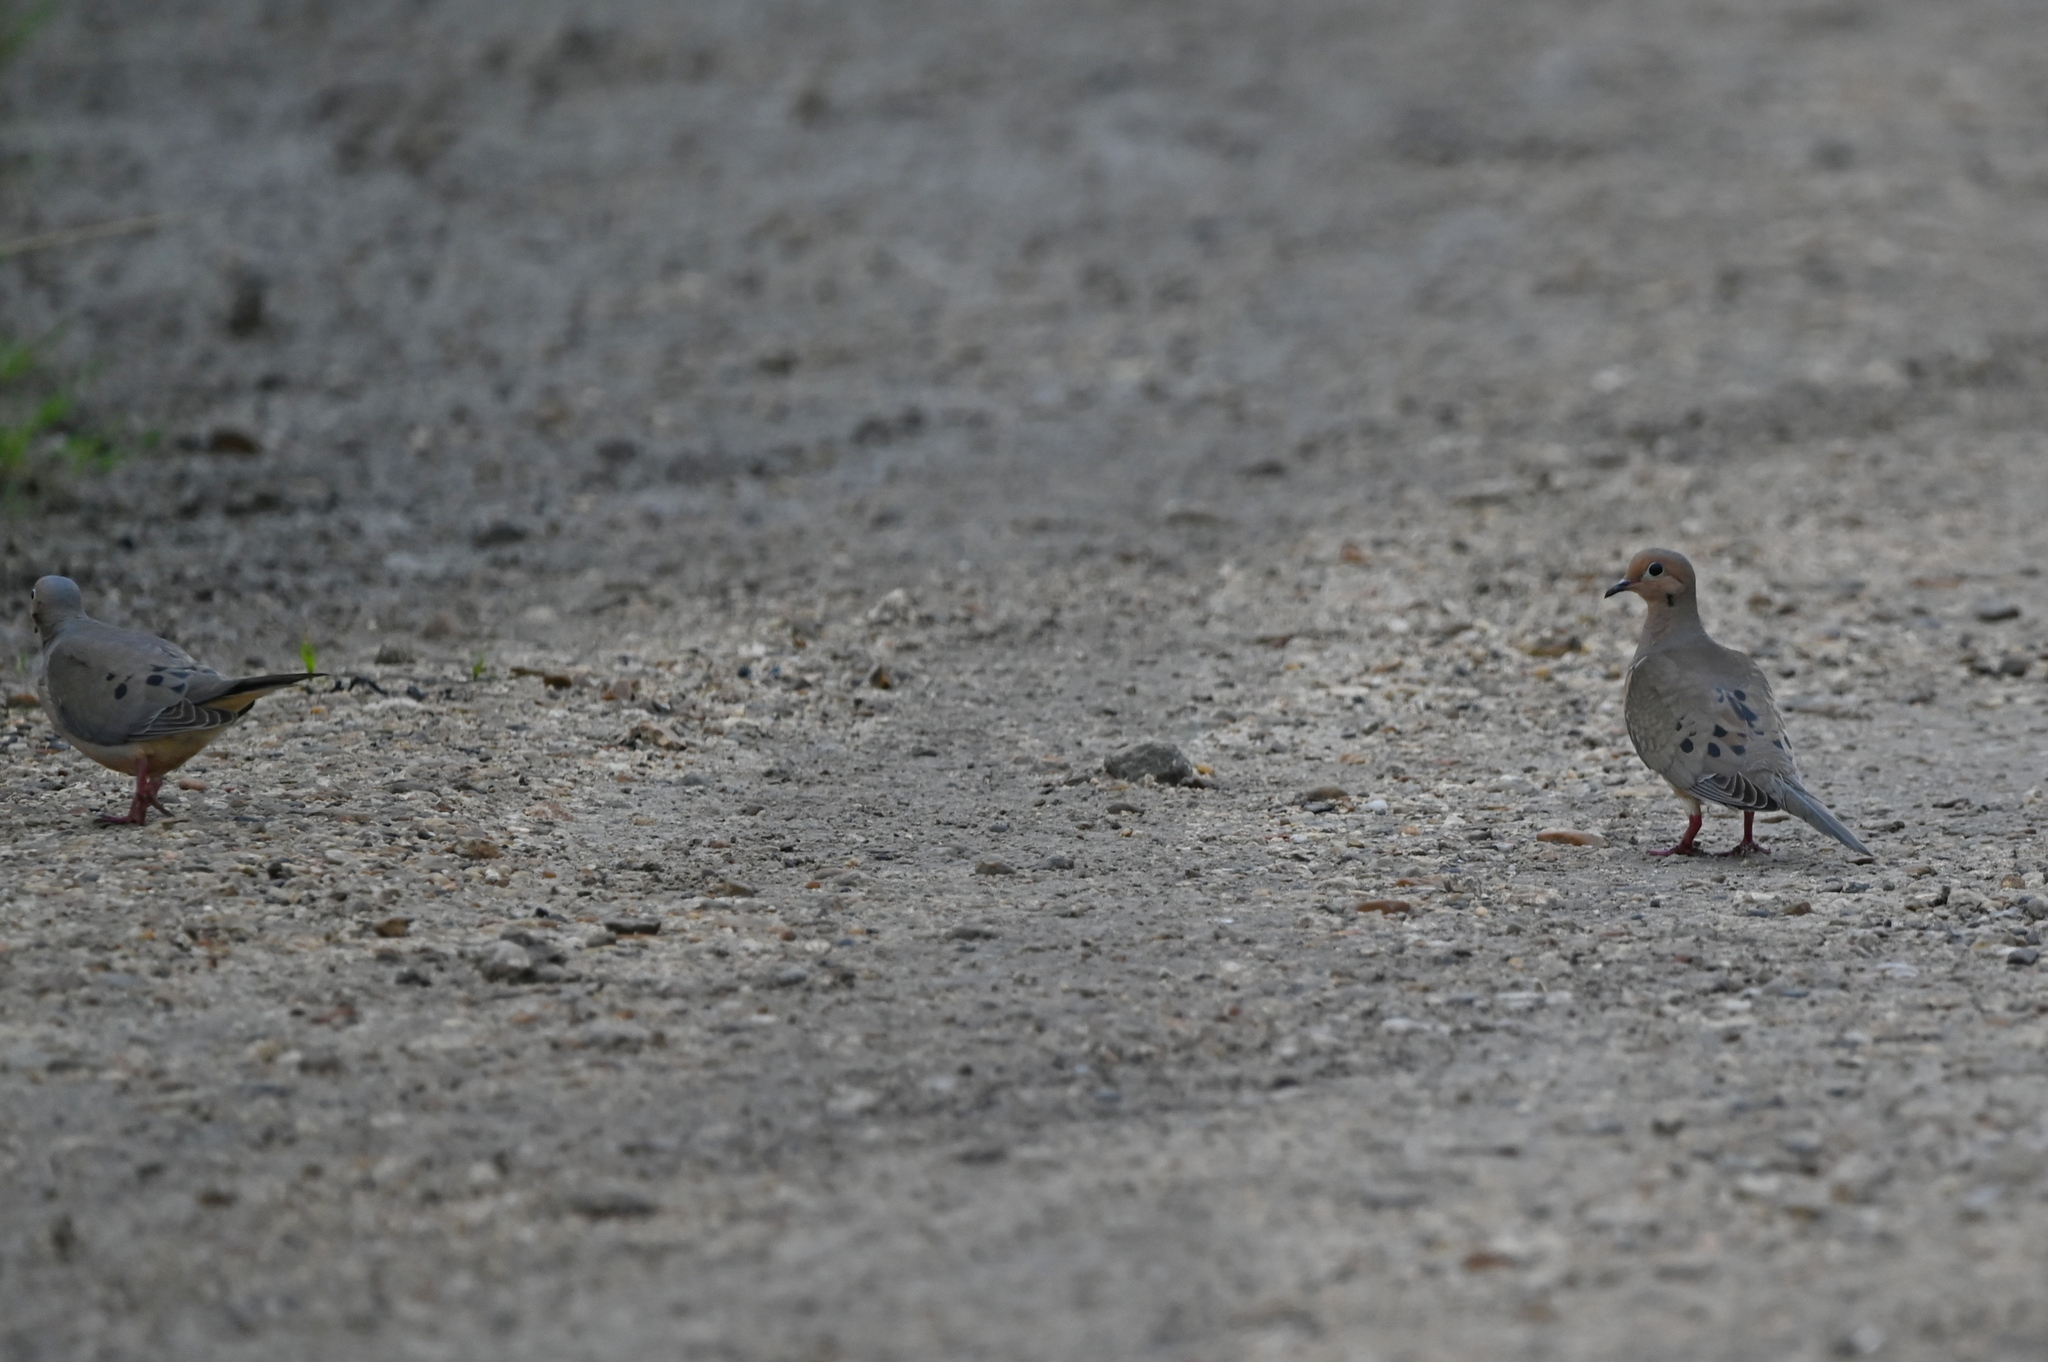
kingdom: Animalia
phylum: Chordata
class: Aves
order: Columbiformes
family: Columbidae
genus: Zenaida
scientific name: Zenaida macroura
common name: Mourning dove
